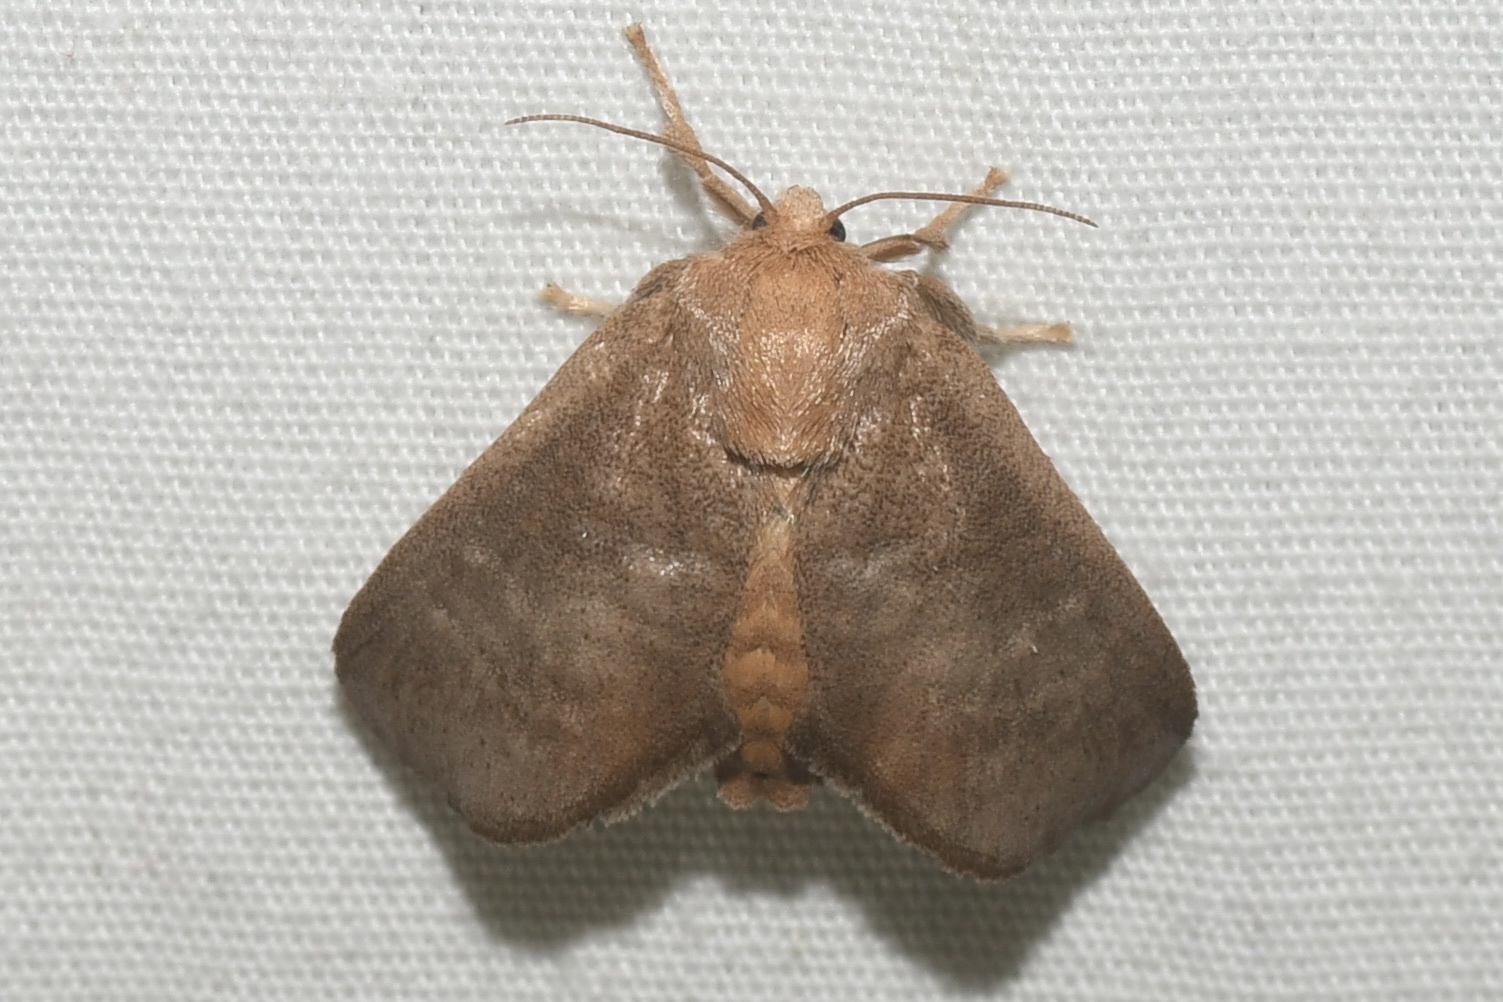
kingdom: Animalia
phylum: Arthropoda
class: Insecta
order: Lepidoptera
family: Limacodidae
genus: Isa
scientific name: Isa textula
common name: Crowned slug moth
